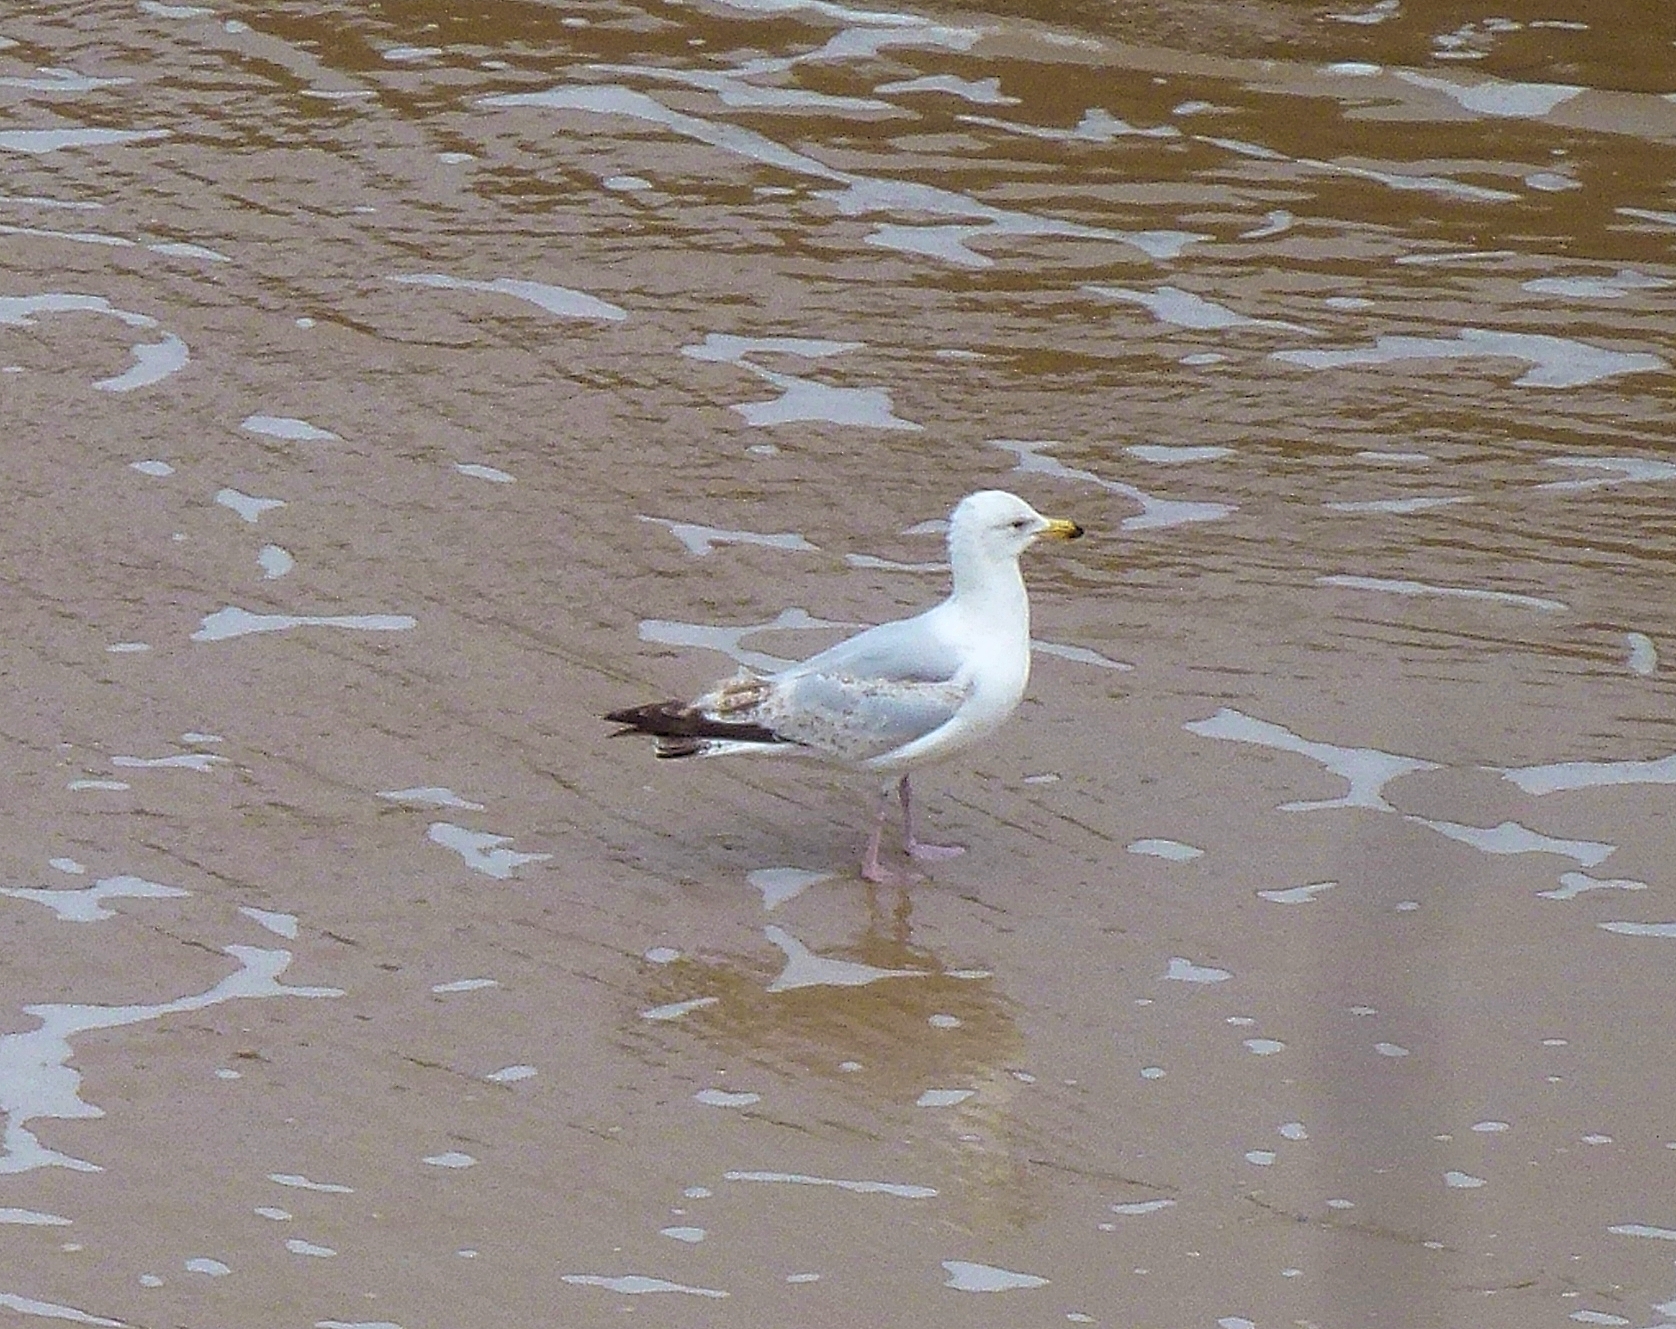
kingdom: Animalia
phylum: Chordata
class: Aves
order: Charadriiformes
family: Laridae
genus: Larus
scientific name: Larus argentatus
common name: Herring gull
